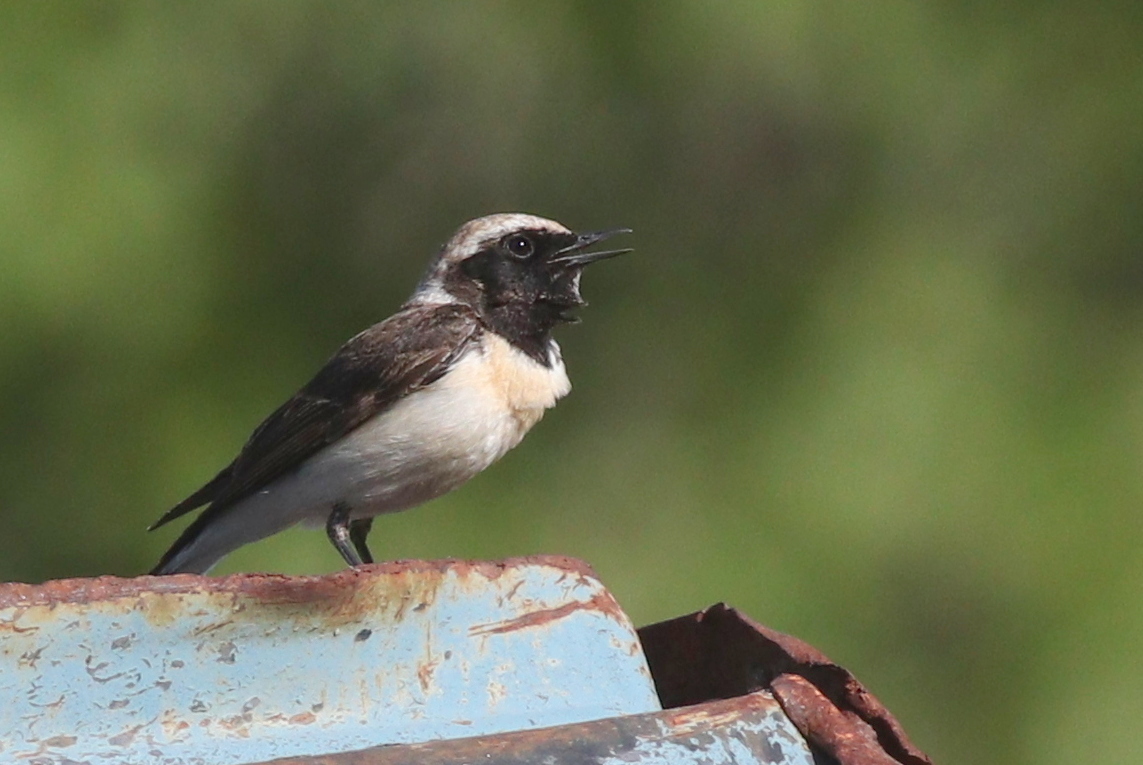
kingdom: Animalia
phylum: Chordata
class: Aves
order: Passeriformes
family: Muscicapidae
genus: Oenanthe
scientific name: Oenanthe hispanica
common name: Black-eared wheatear
